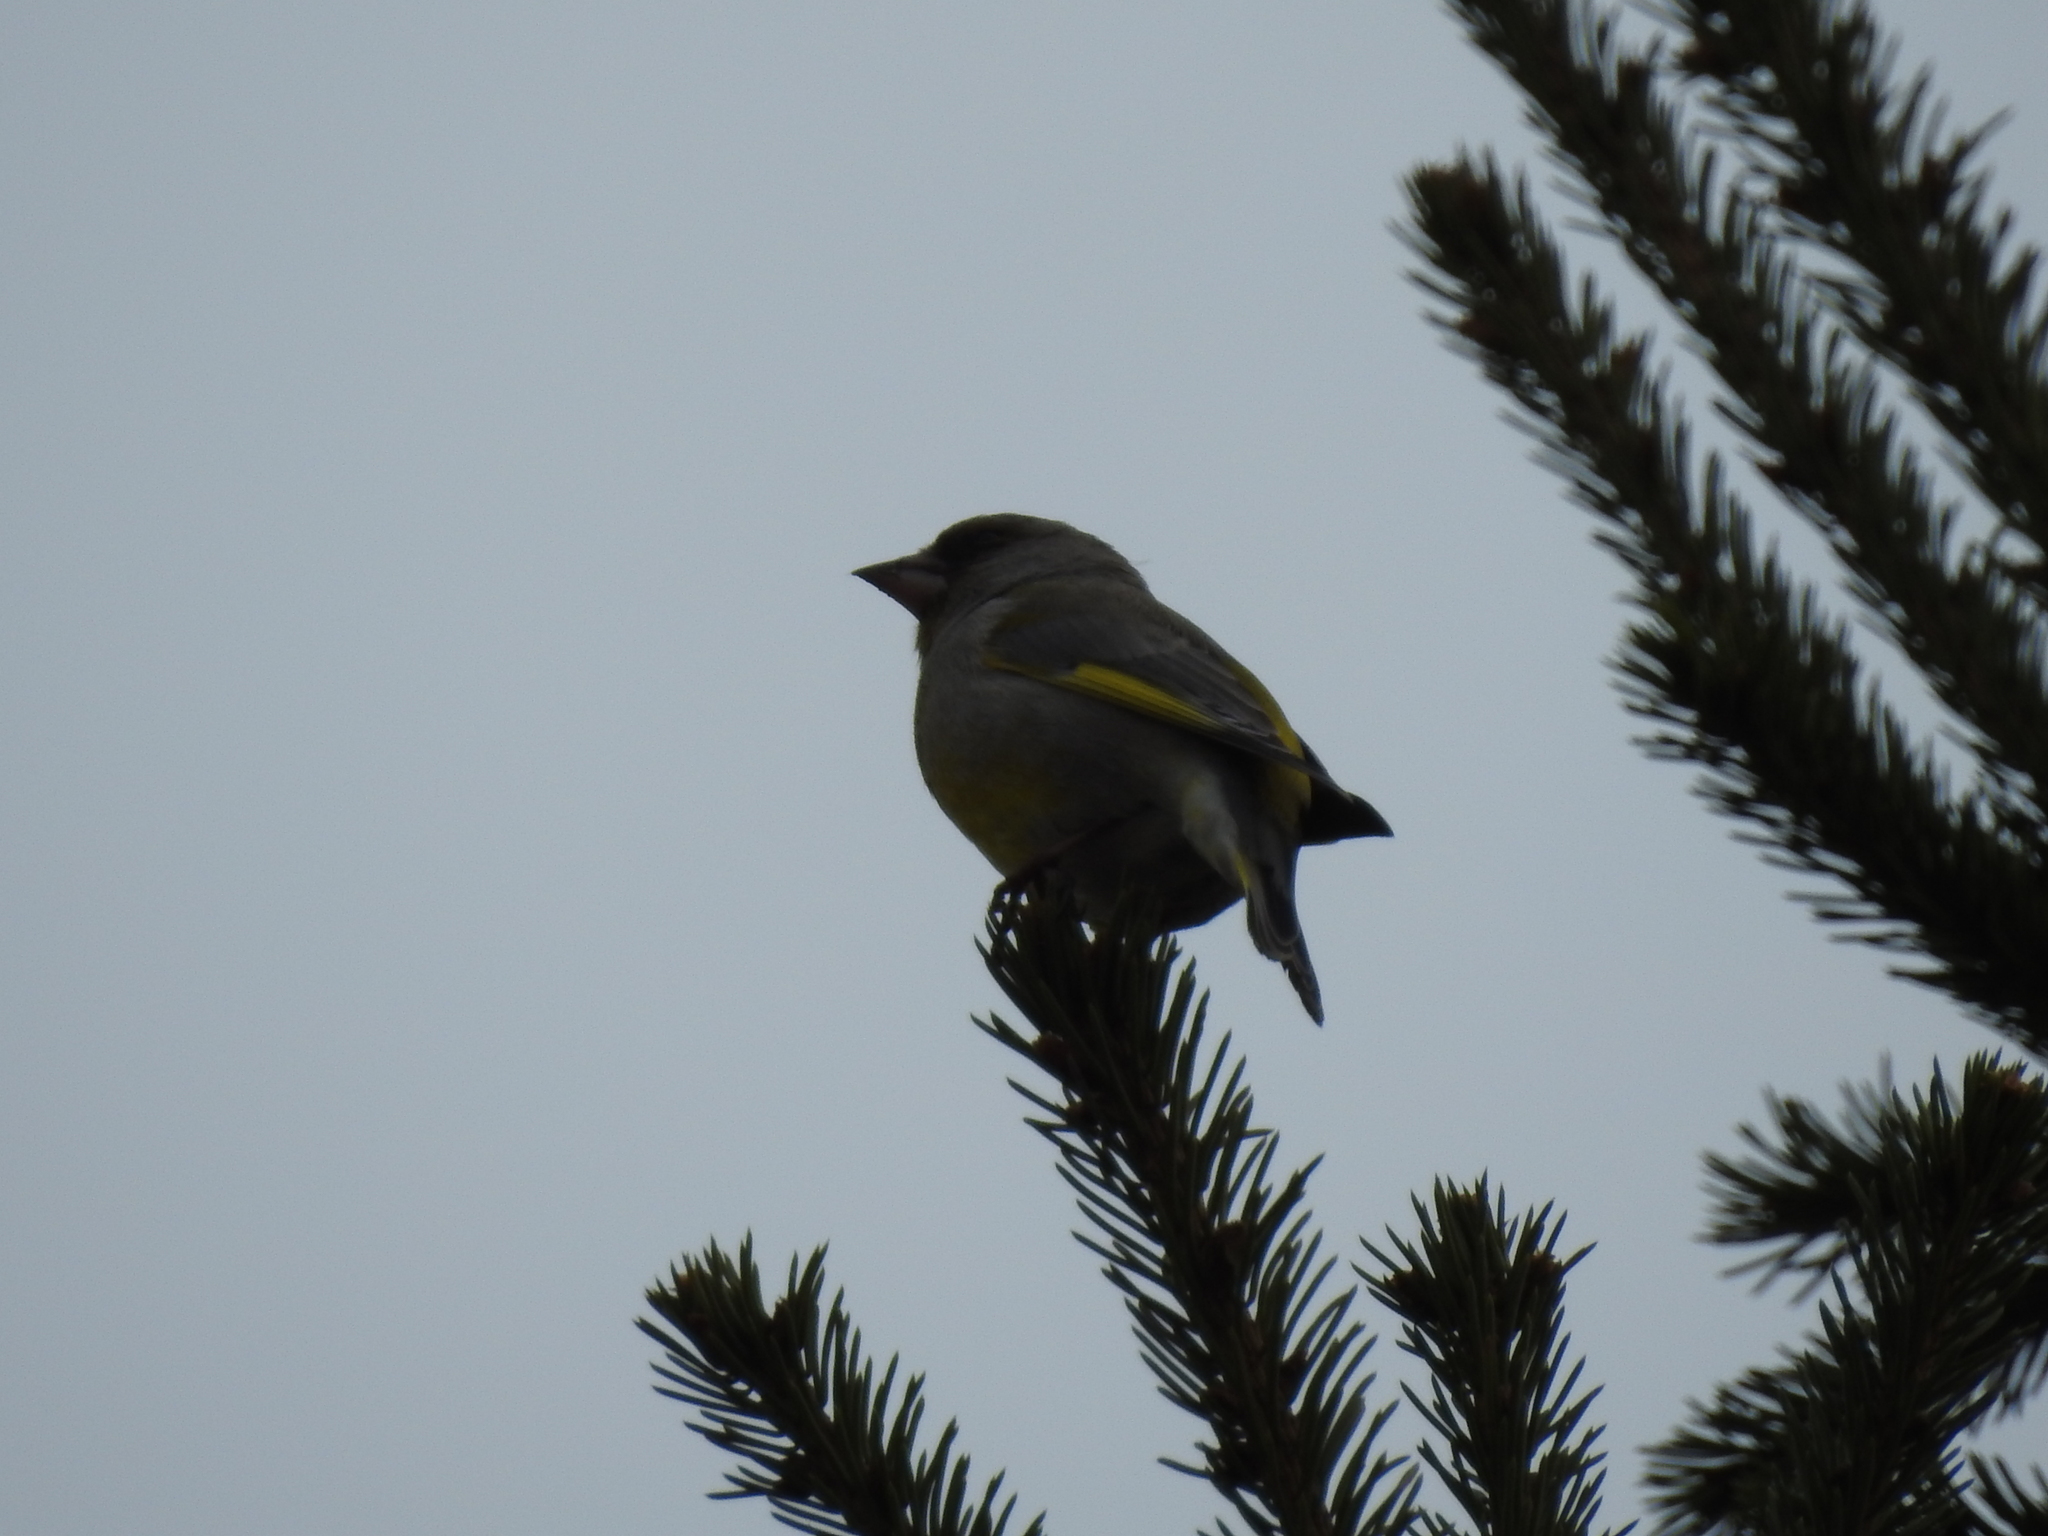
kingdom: Plantae
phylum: Tracheophyta
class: Liliopsida
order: Poales
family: Poaceae
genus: Chloris
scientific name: Chloris chloris
